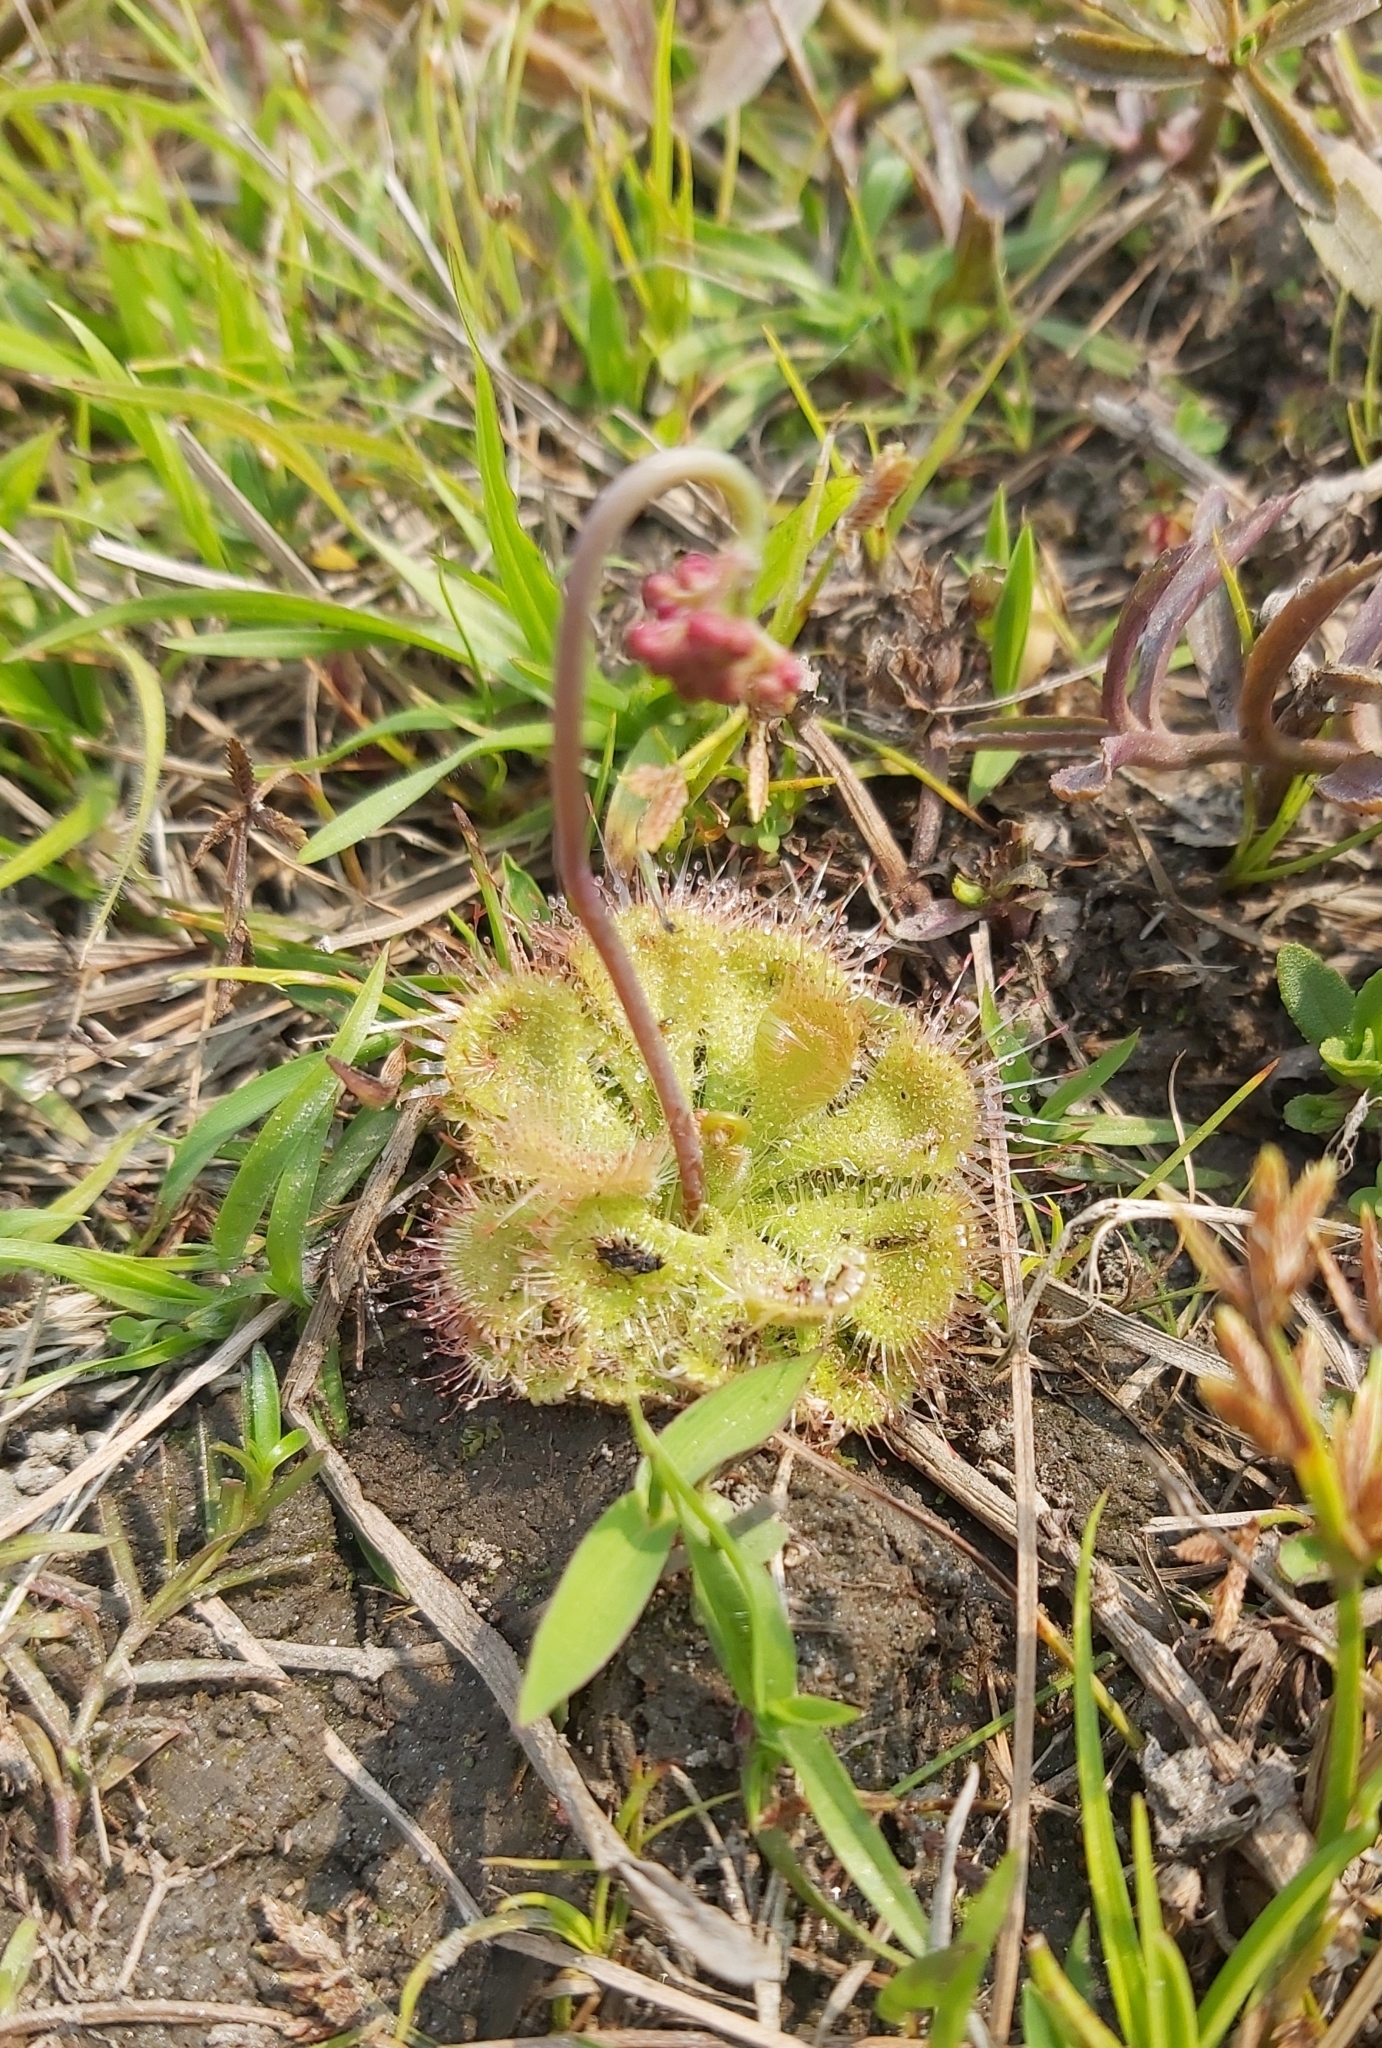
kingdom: Plantae
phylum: Tracheophyta
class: Magnoliopsida
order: Caryophyllales
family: Droseraceae
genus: Drosera
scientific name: Drosera spatulata
